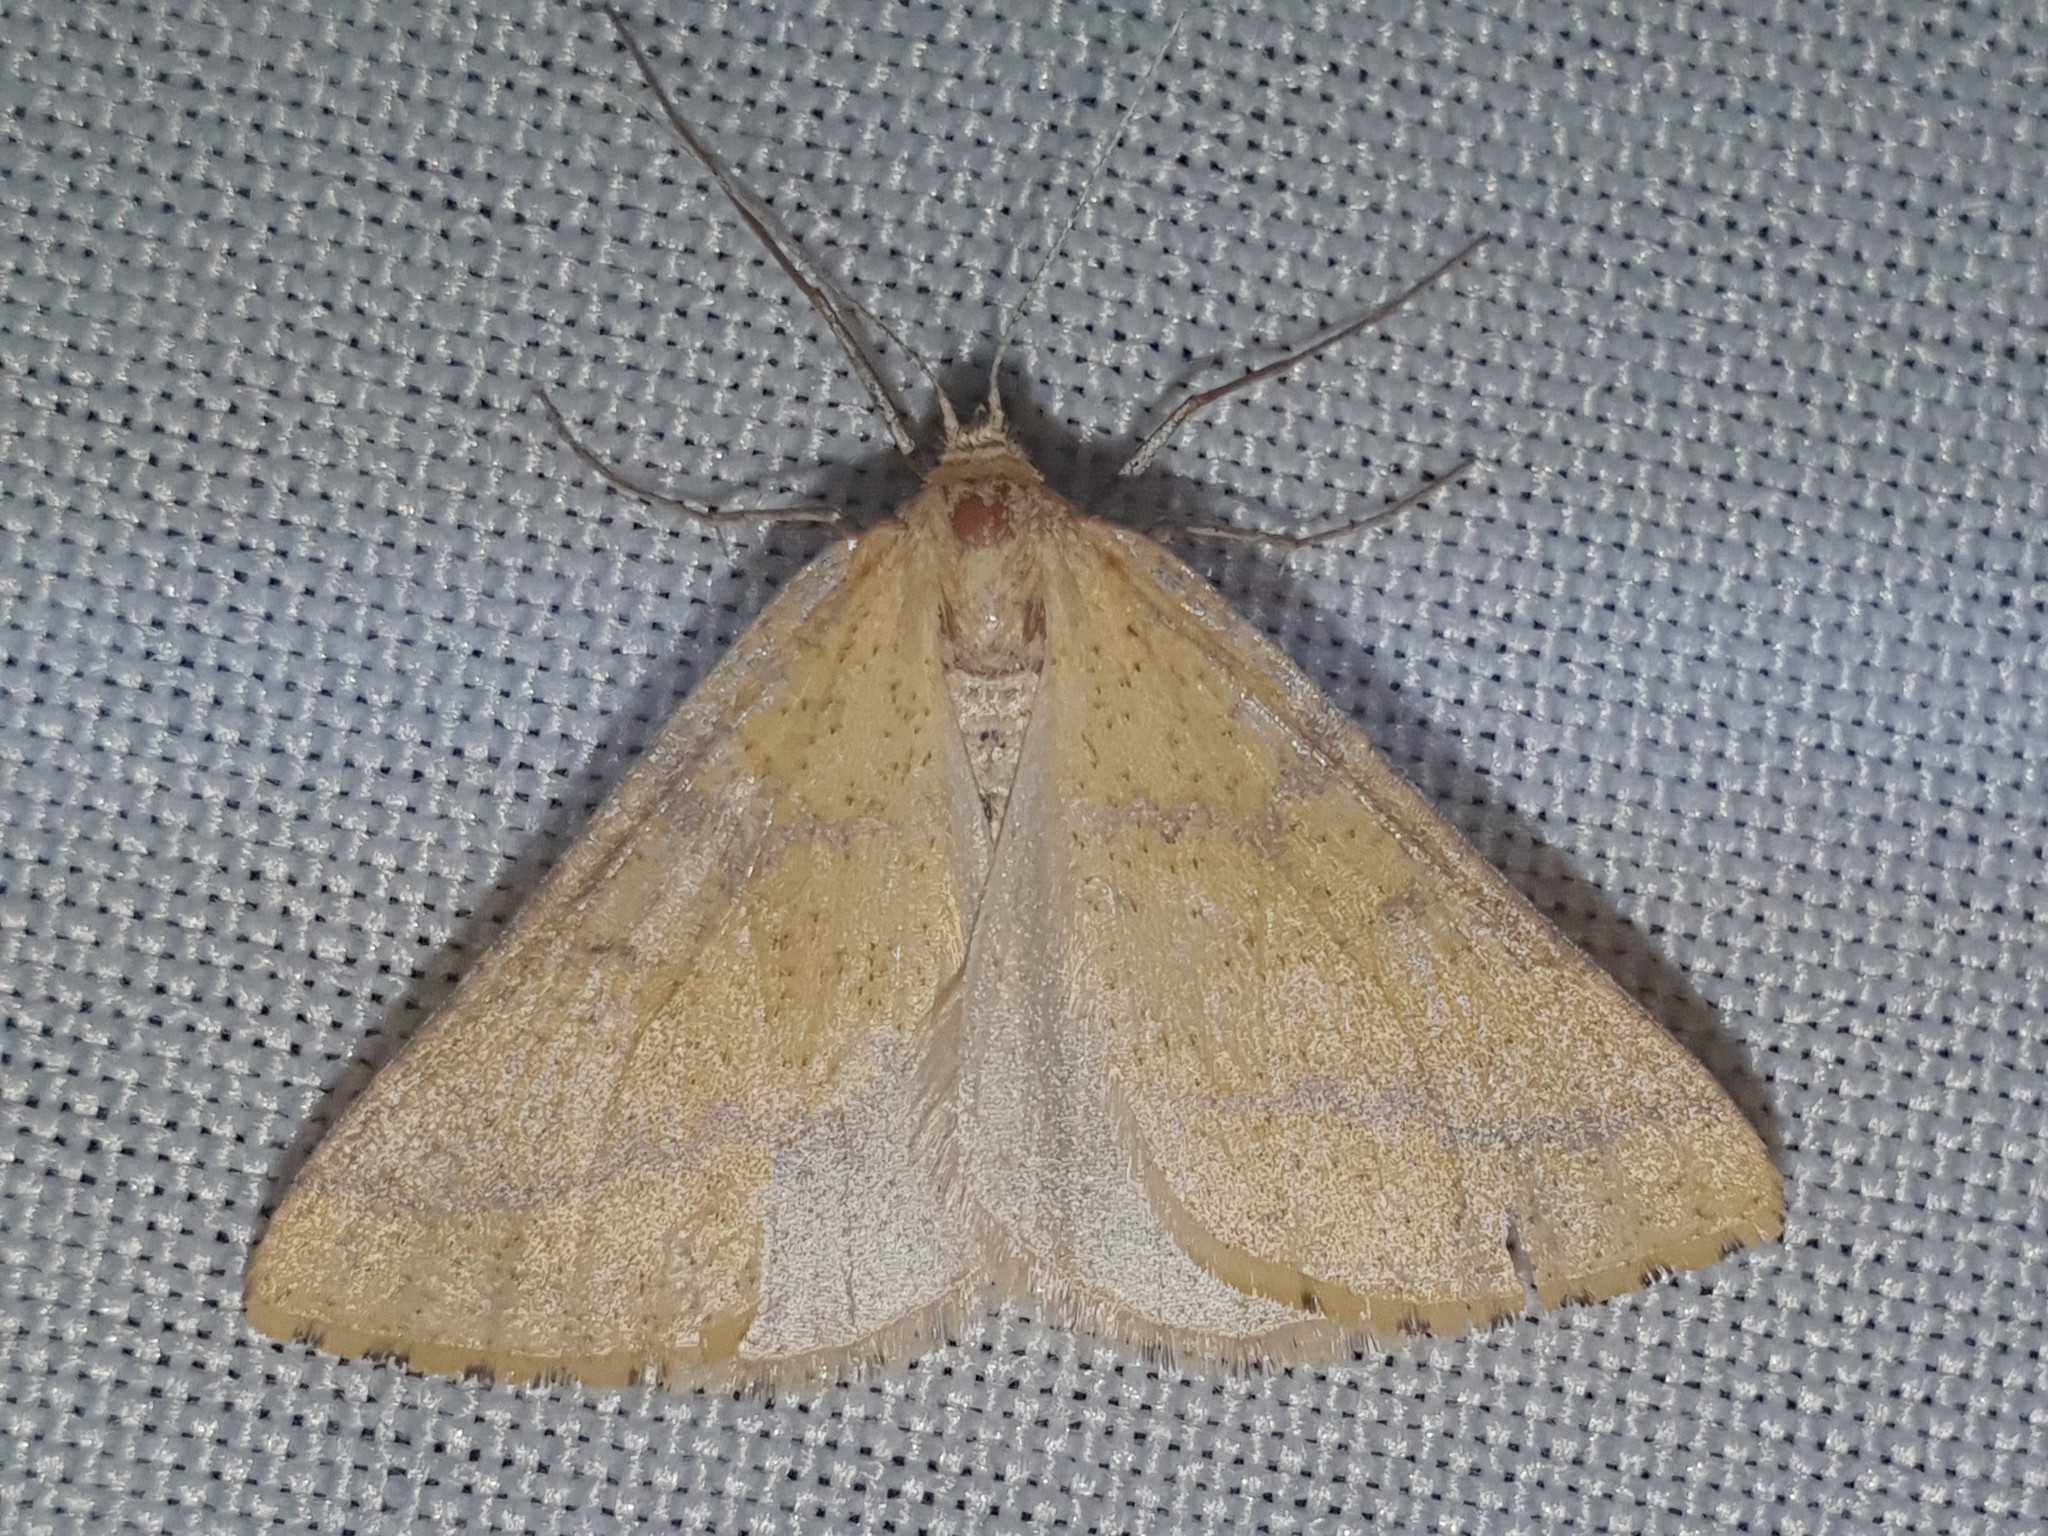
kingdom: Animalia
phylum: Arthropoda
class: Insecta
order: Lepidoptera
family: Geometridae
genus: Aspitates
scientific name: Aspitates ochrearia
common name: Yellow belle
